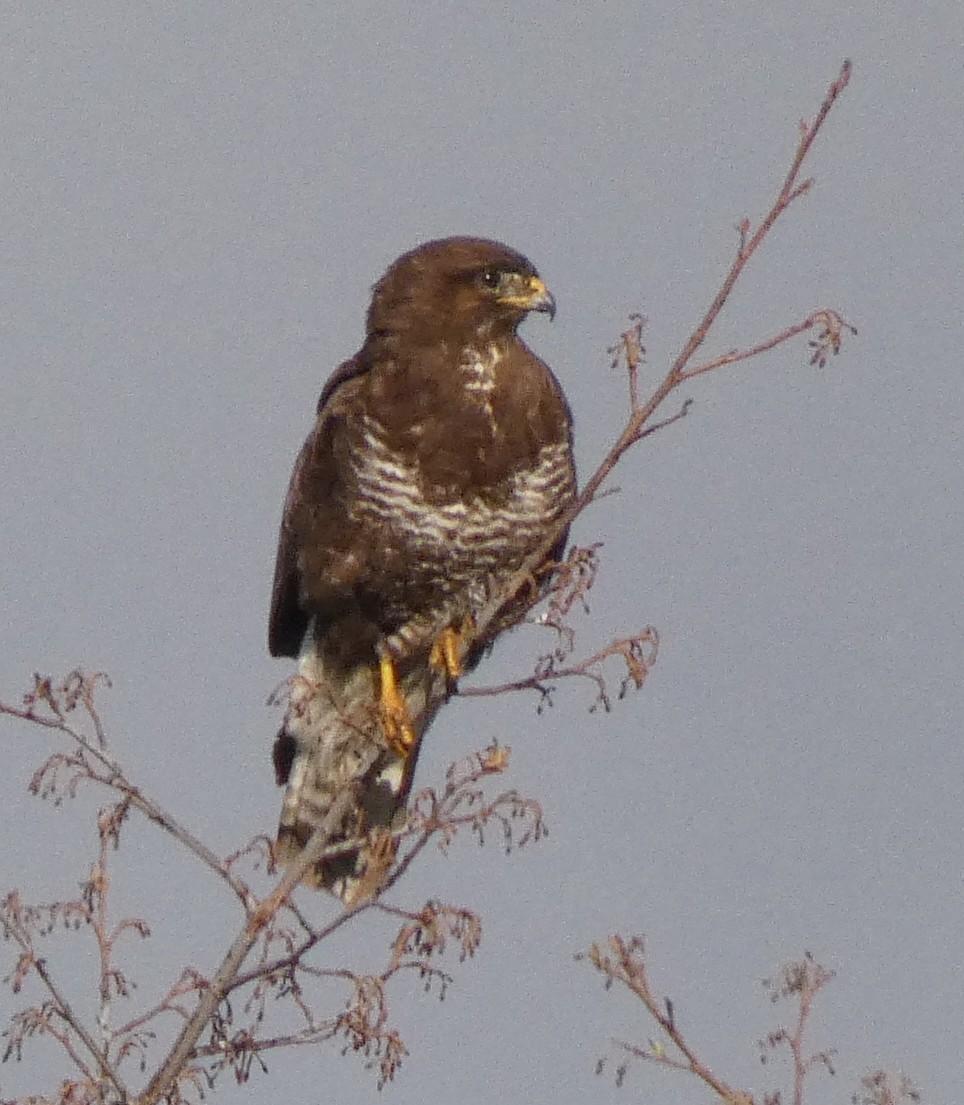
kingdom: Animalia
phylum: Chordata
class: Aves
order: Accipitriformes
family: Accipitridae
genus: Buteo
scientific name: Buteo buteo
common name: Common buzzard
